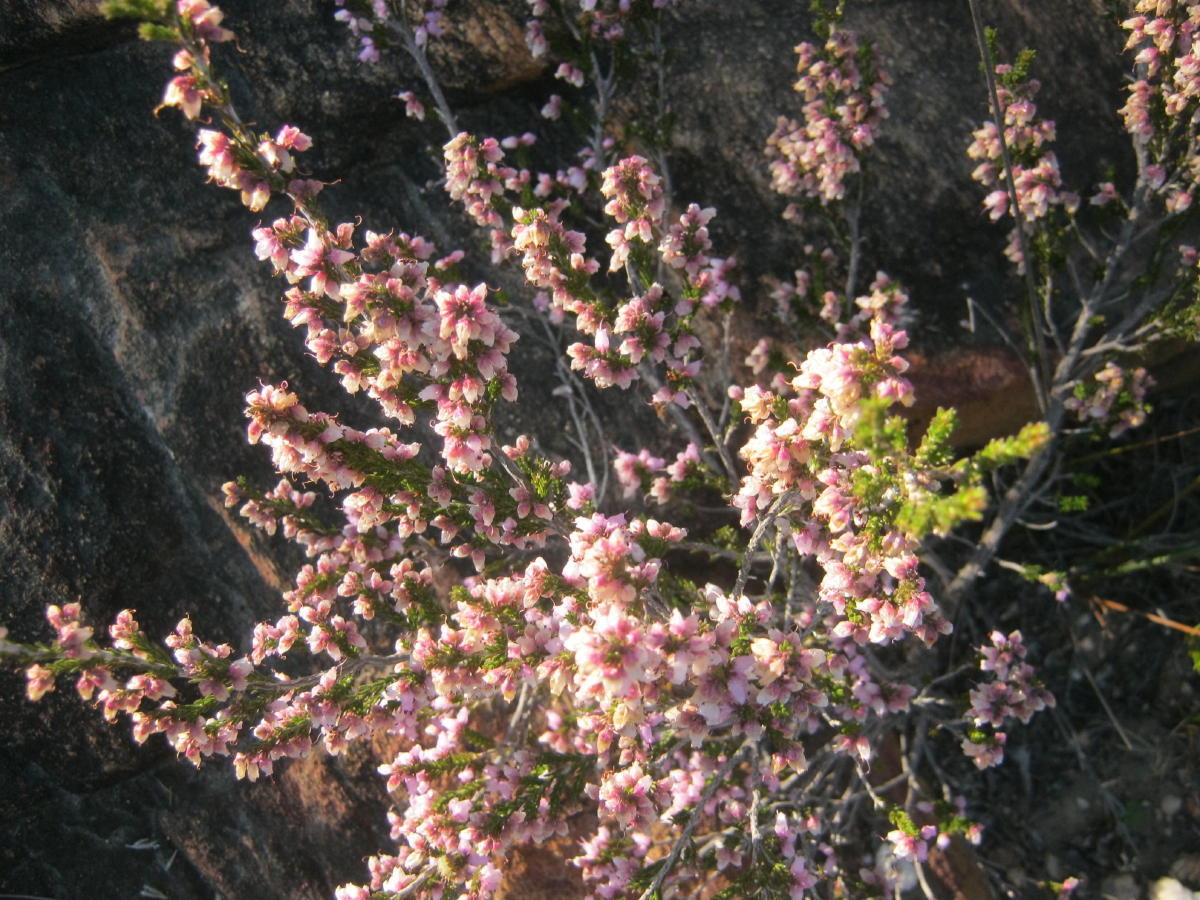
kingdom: Plantae
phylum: Tracheophyta
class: Magnoliopsida
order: Ericales
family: Ericaceae
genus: Erica
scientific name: Erica vlokii
